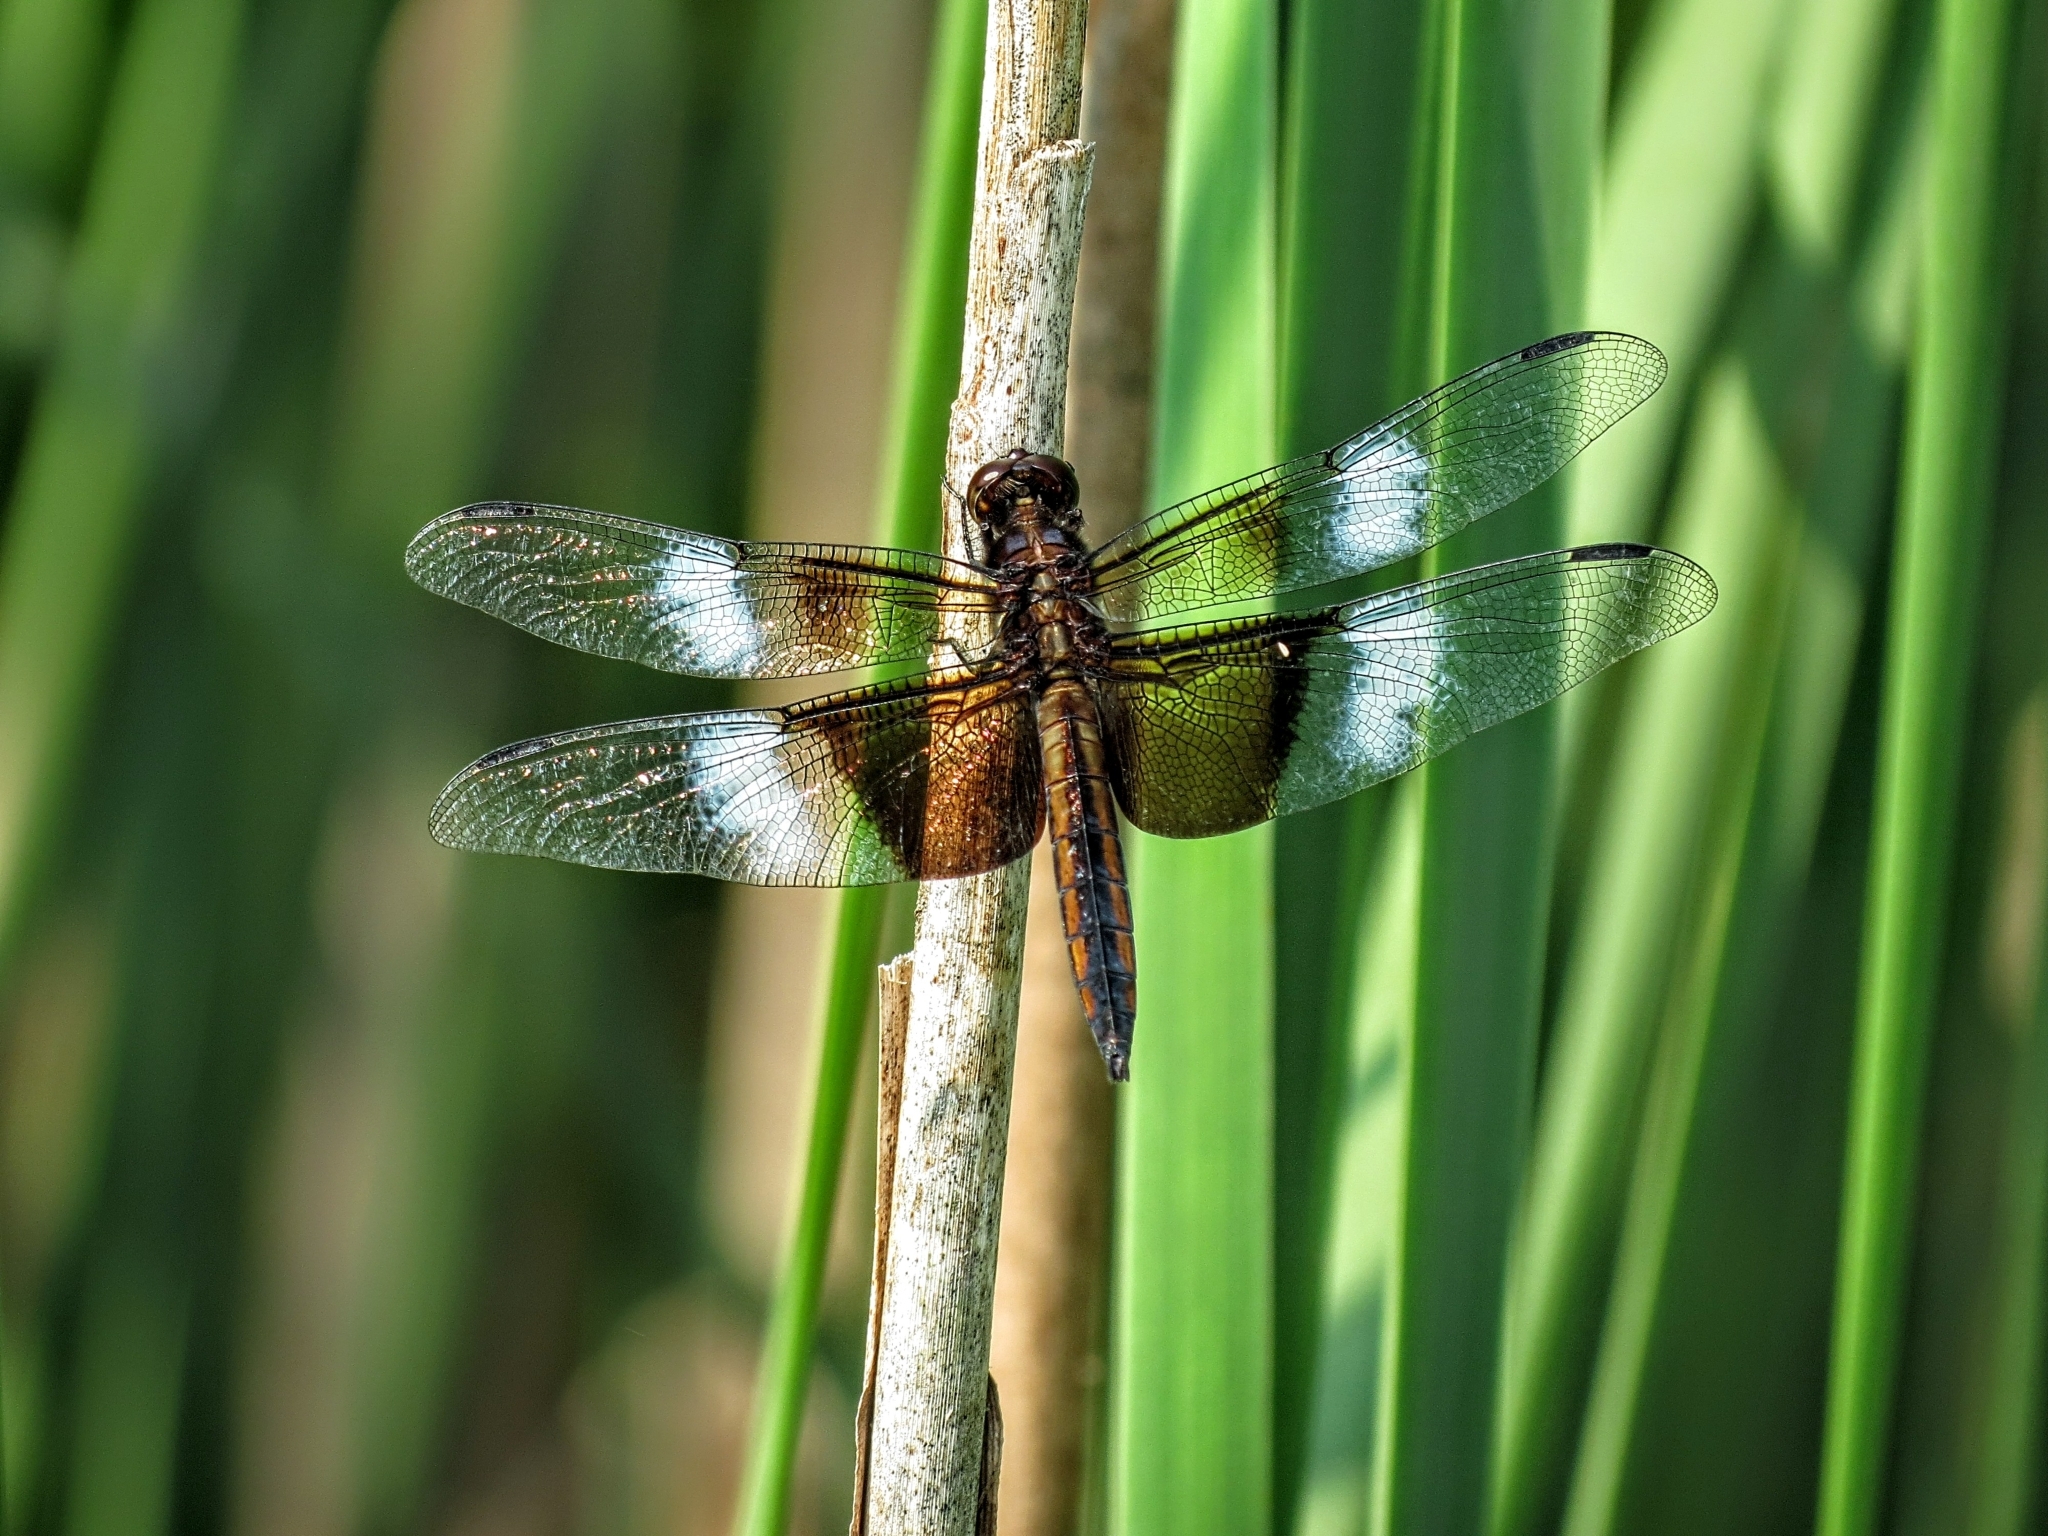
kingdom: Animalia
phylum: Arthropoda
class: Insecta
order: Odonata
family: Libellulidae
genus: Libellula
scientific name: Libellula luctuosa
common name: Widow skimmer
